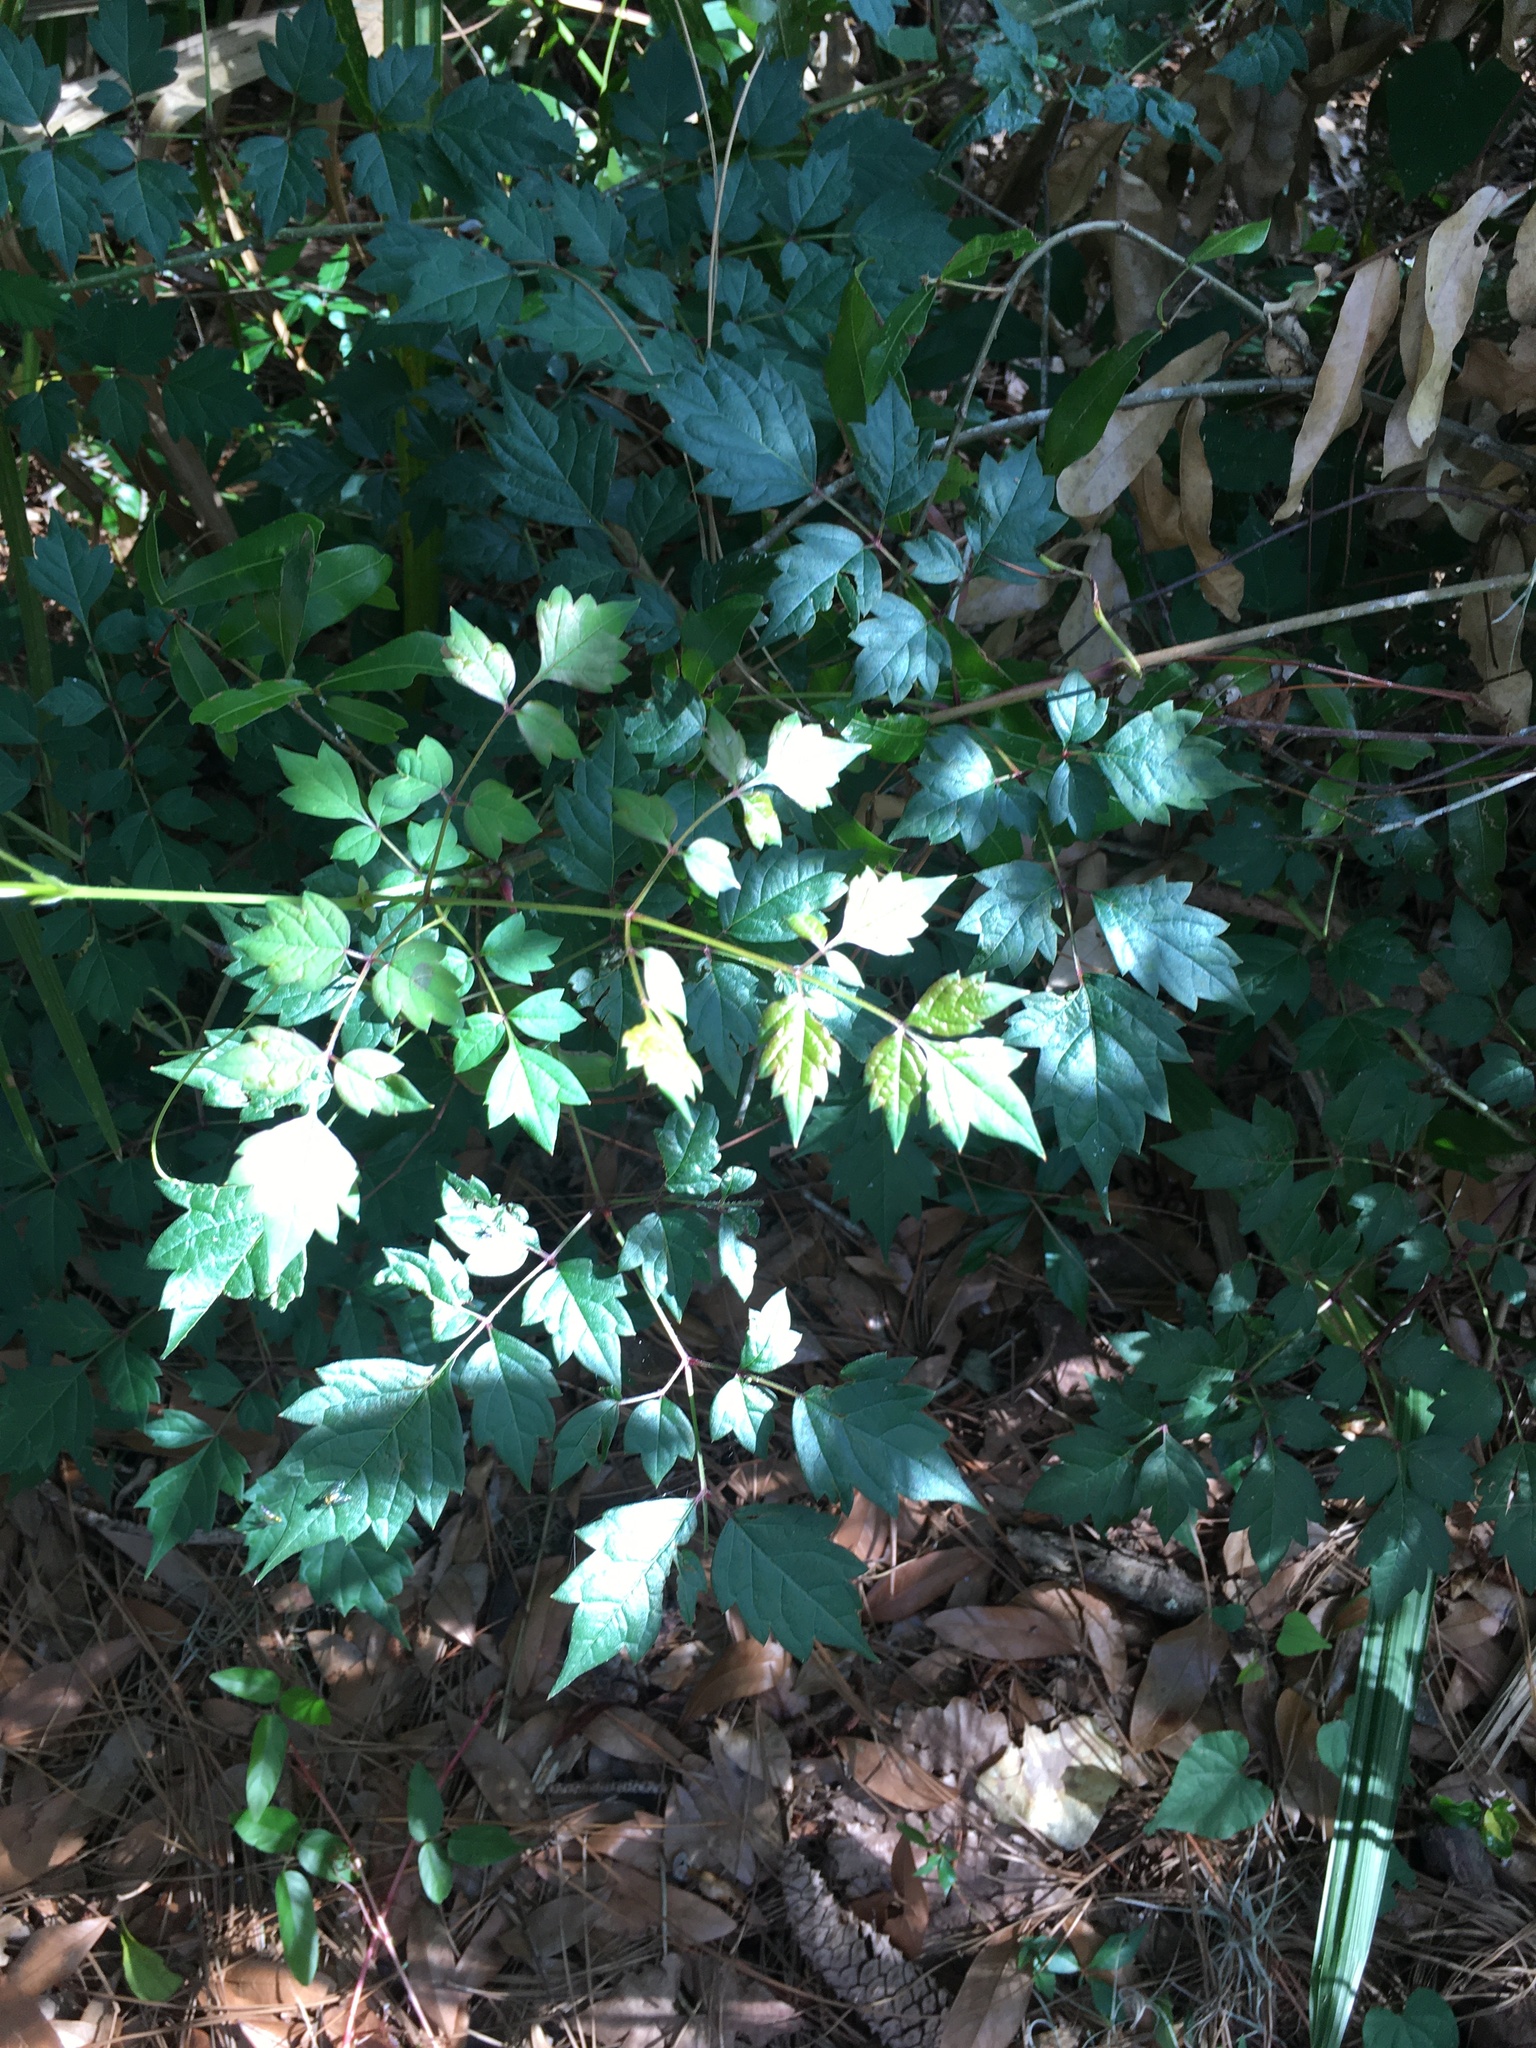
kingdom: Plantae
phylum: Tracheophyta
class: Magnoliopsida
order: Vitales
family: Vitaceae
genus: Nekemias
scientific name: Nekemias arborea
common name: Peppervine
